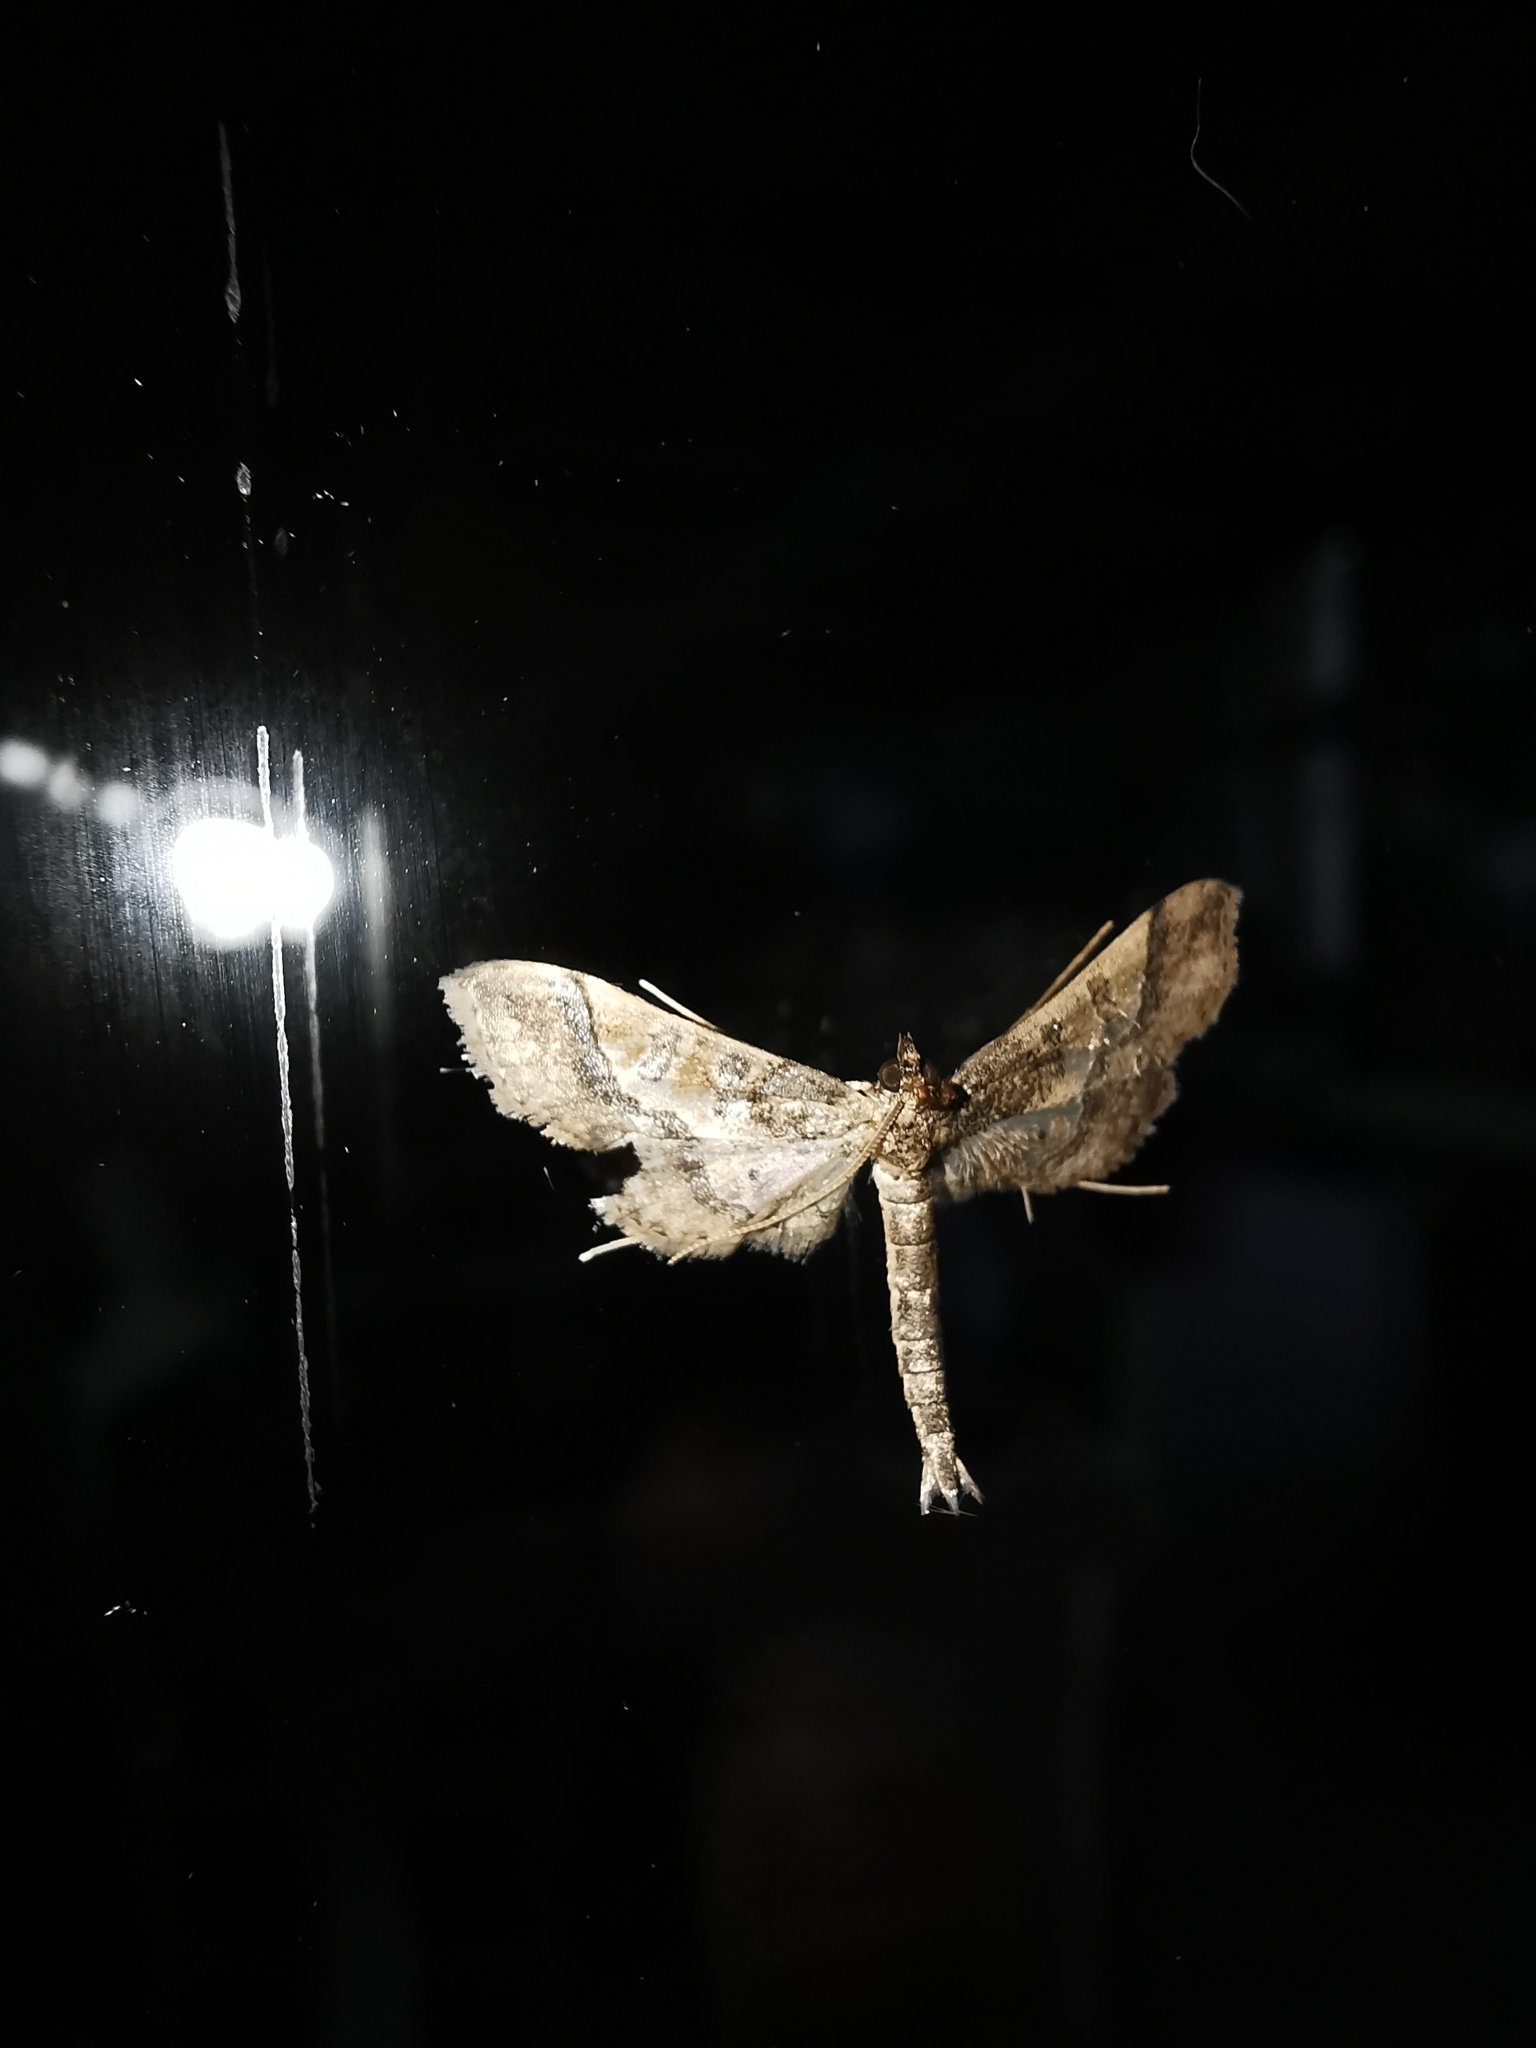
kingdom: Animalia
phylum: Arthropoda
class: Insecta
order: Lepidoptera
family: Crambidae
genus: Hydriris
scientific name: Hydriris ornatalis
